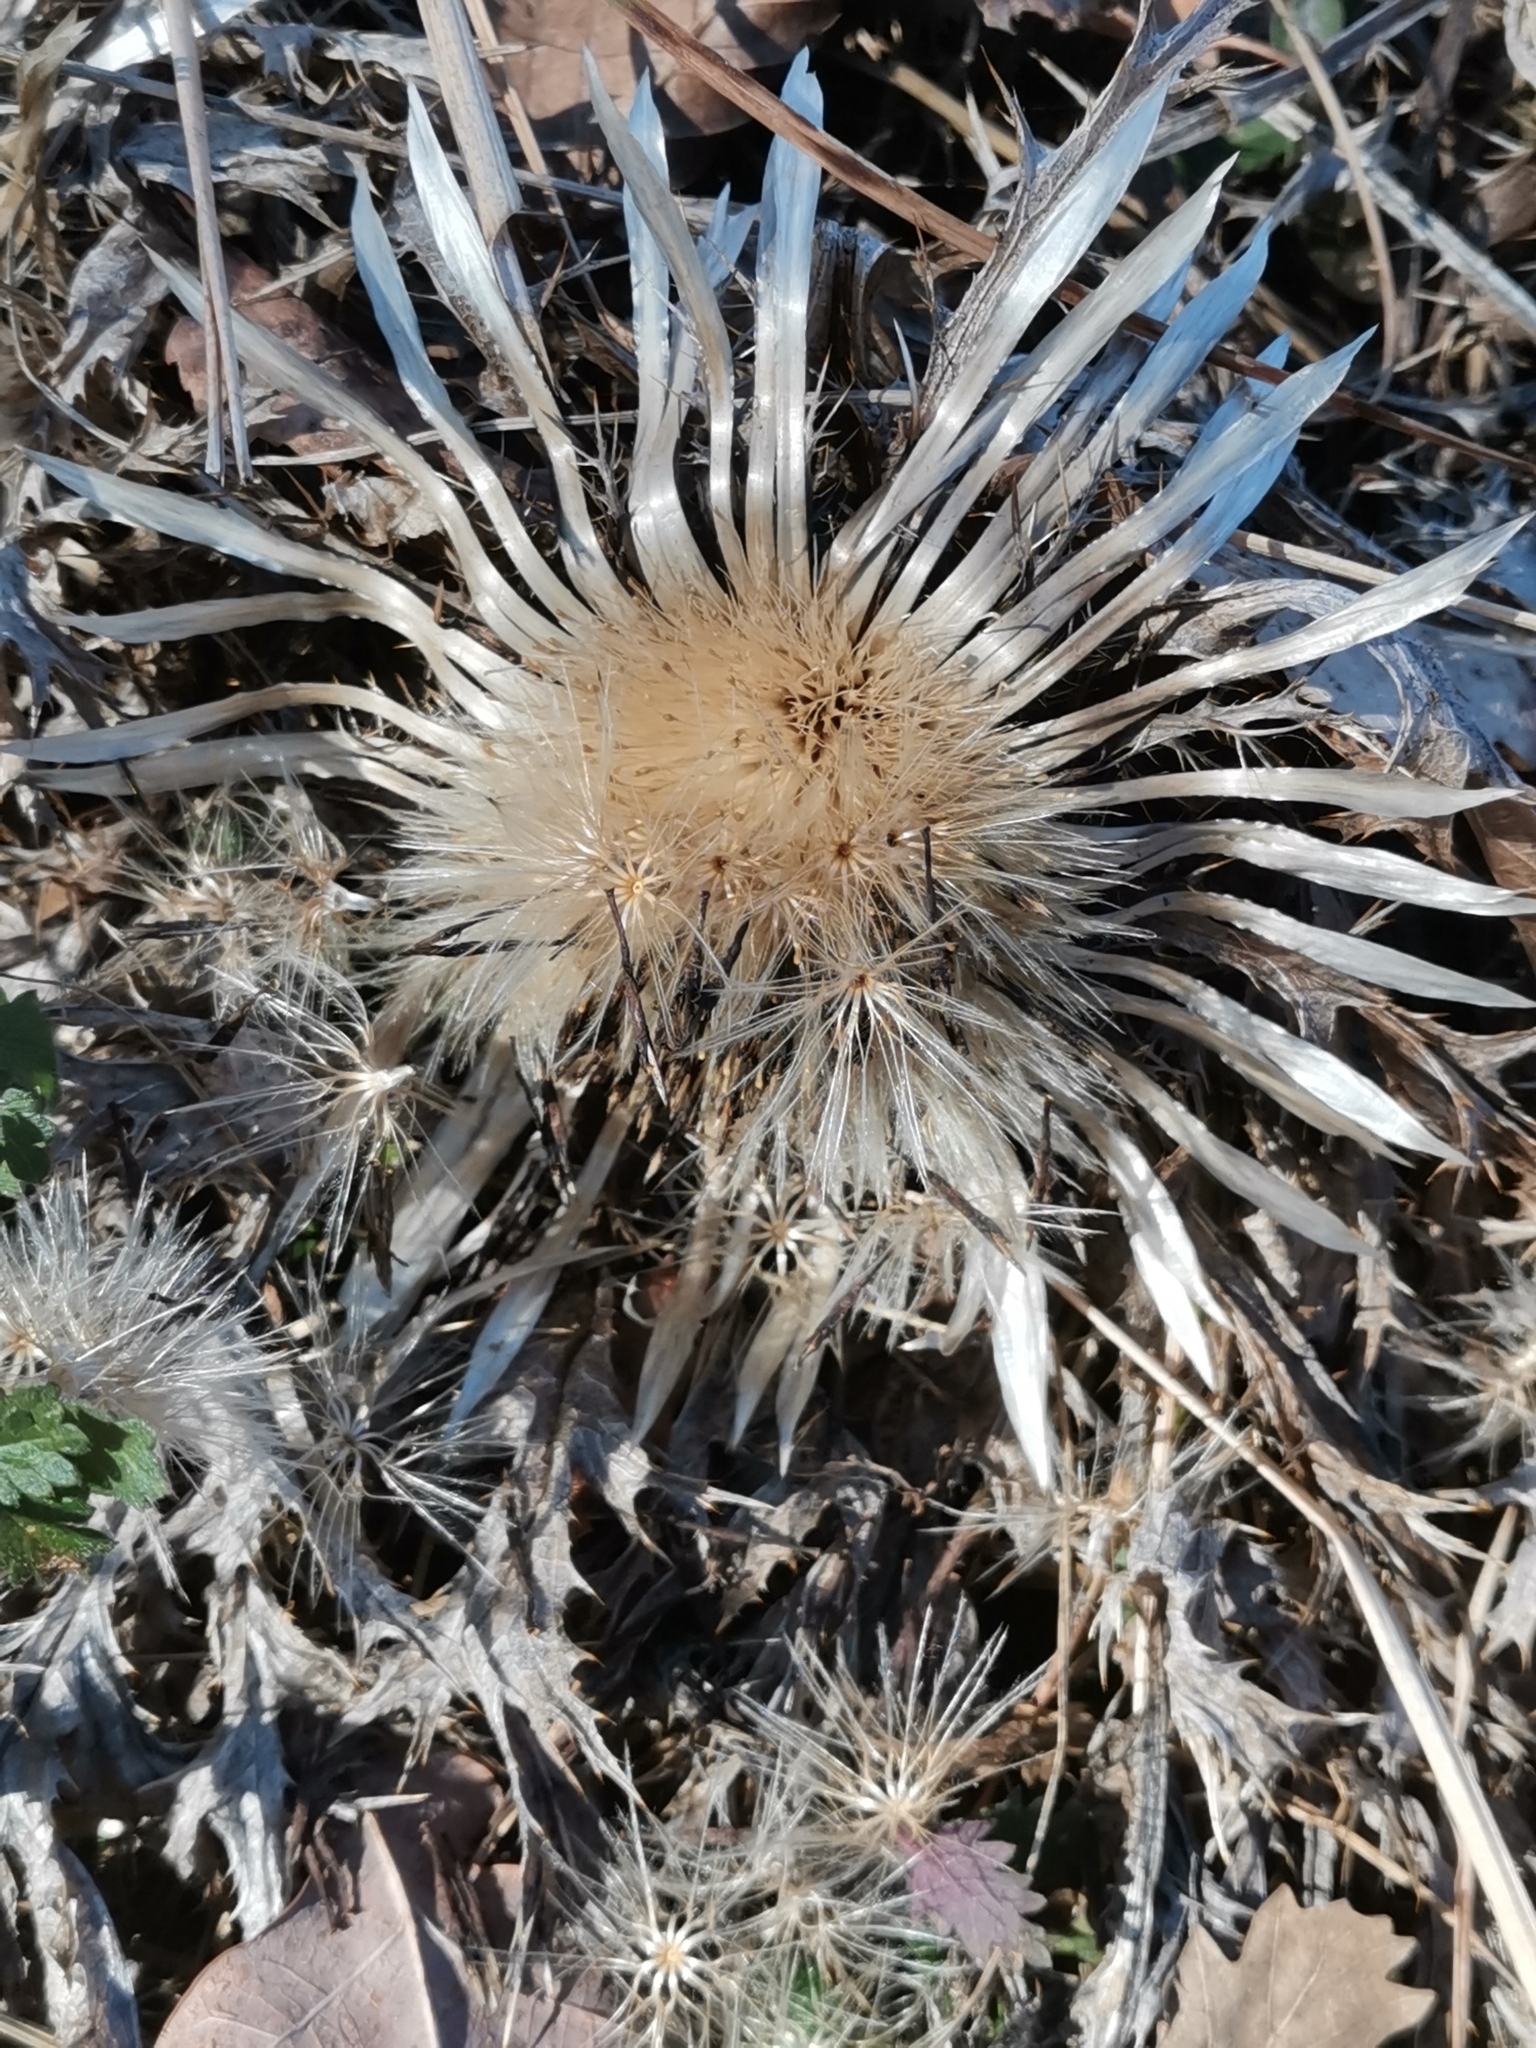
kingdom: Plantae
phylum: Tracheophyta
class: Magnoliopsida
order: Asterales
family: Asteraceae
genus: Carlina
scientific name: Carlina acaulis
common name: Stemless carline thistle
